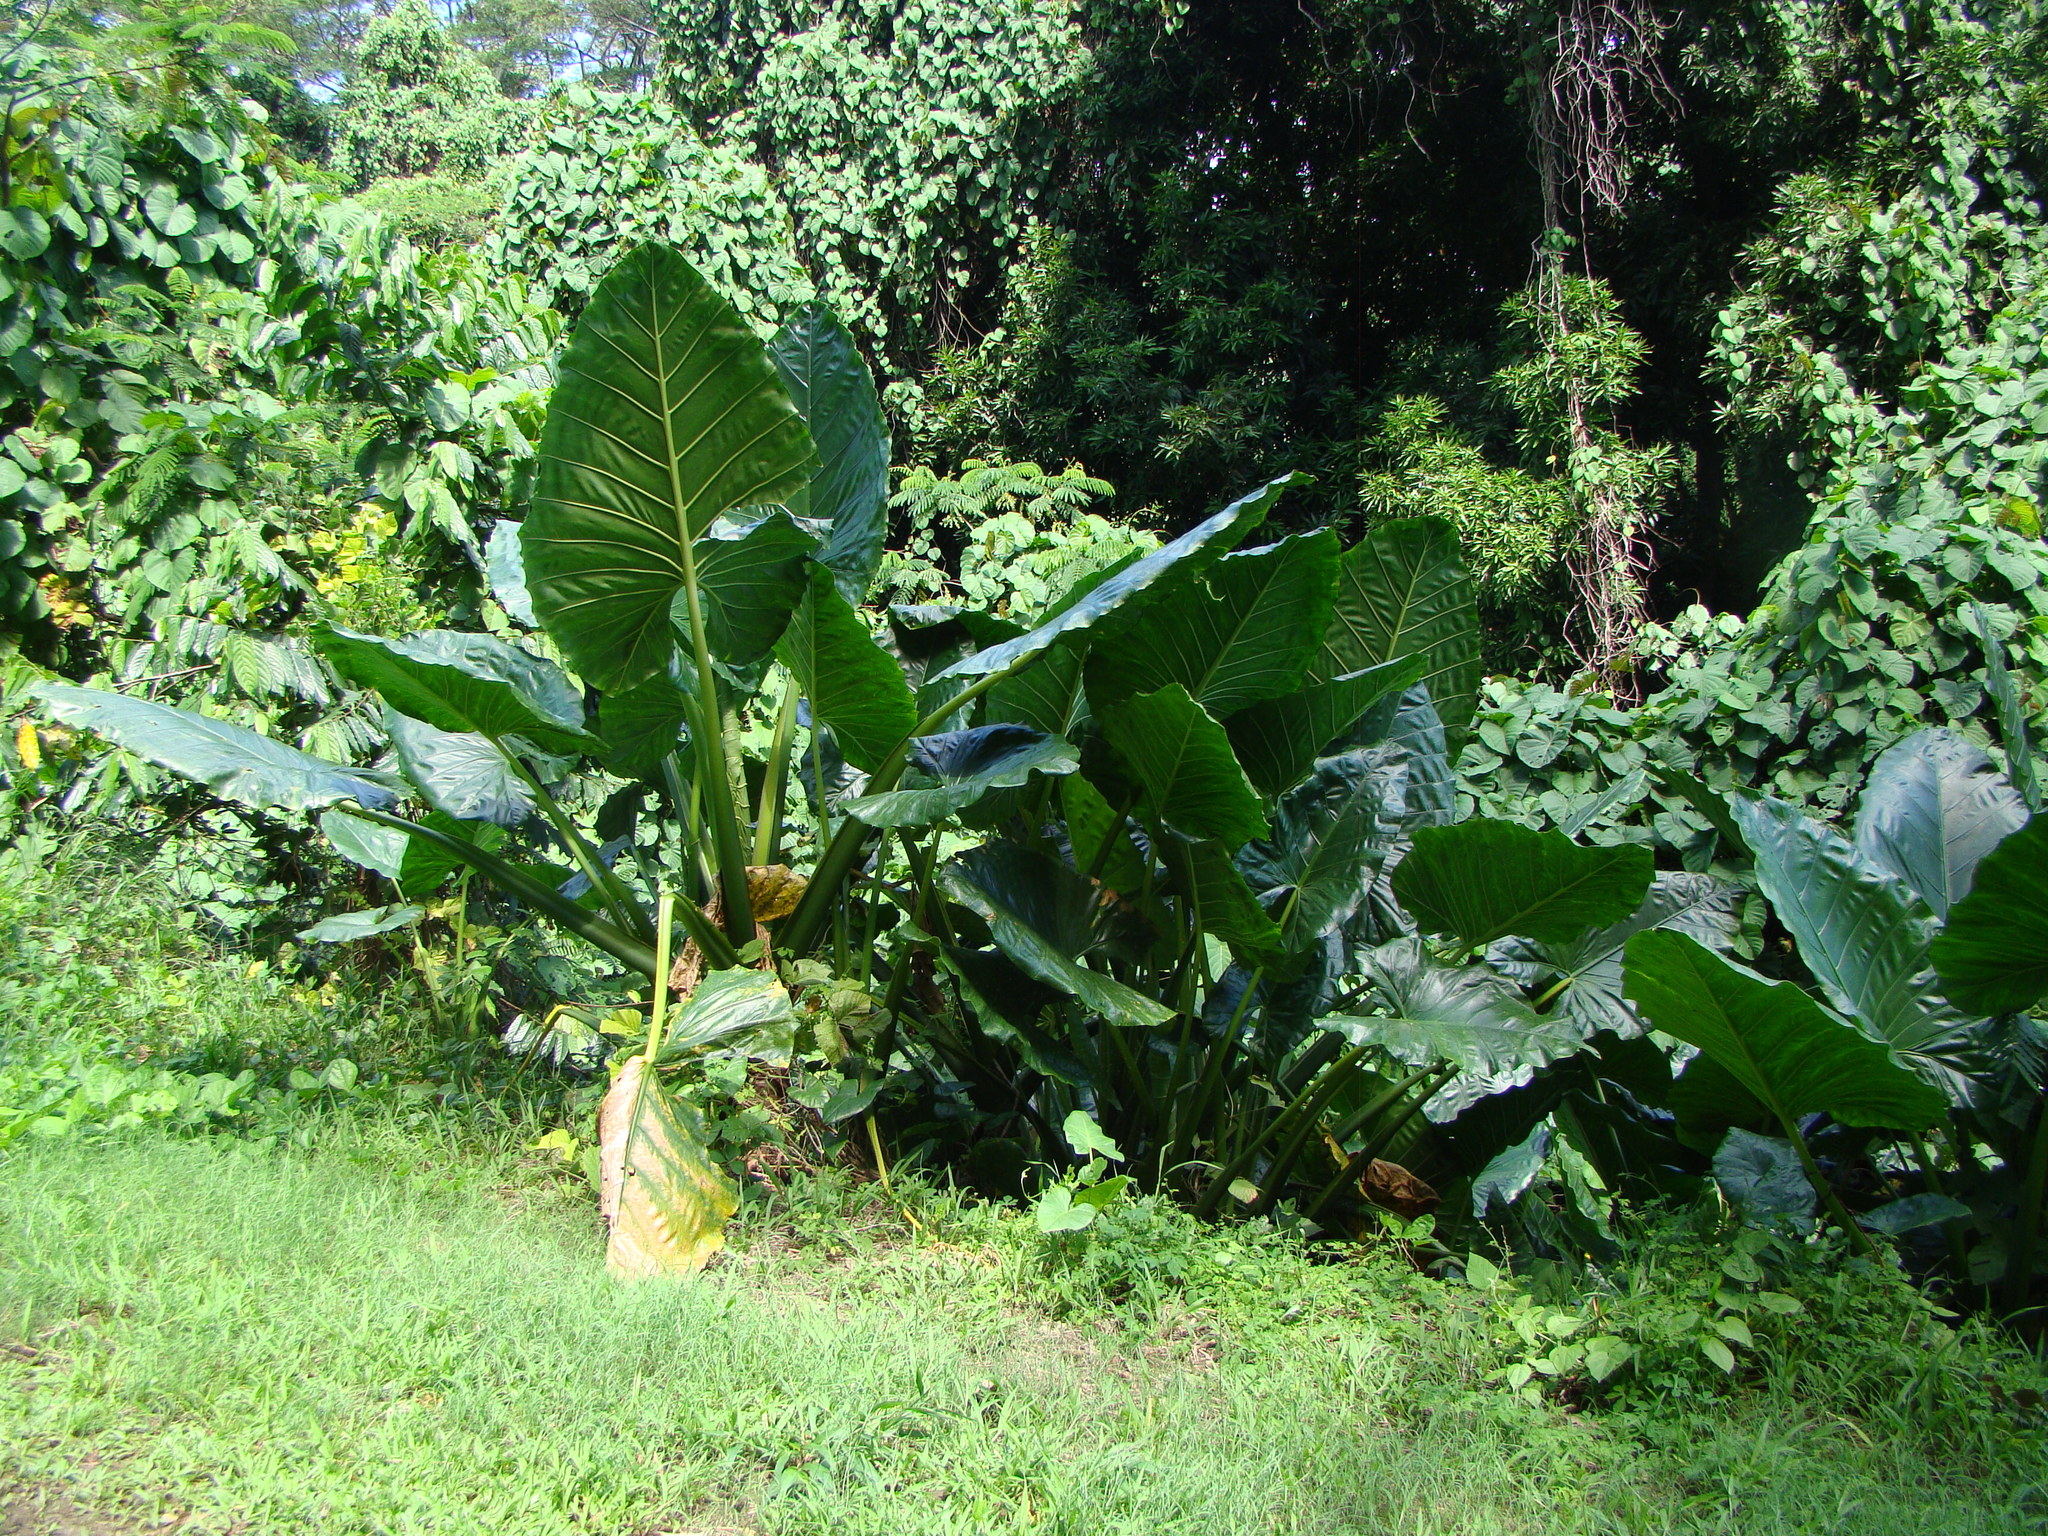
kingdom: Plantae
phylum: Tracheophyta
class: Liliopsida
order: Alismatales
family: Araceae
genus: Alocasia
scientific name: Alocasia macrorrhizos
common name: Giant taro
